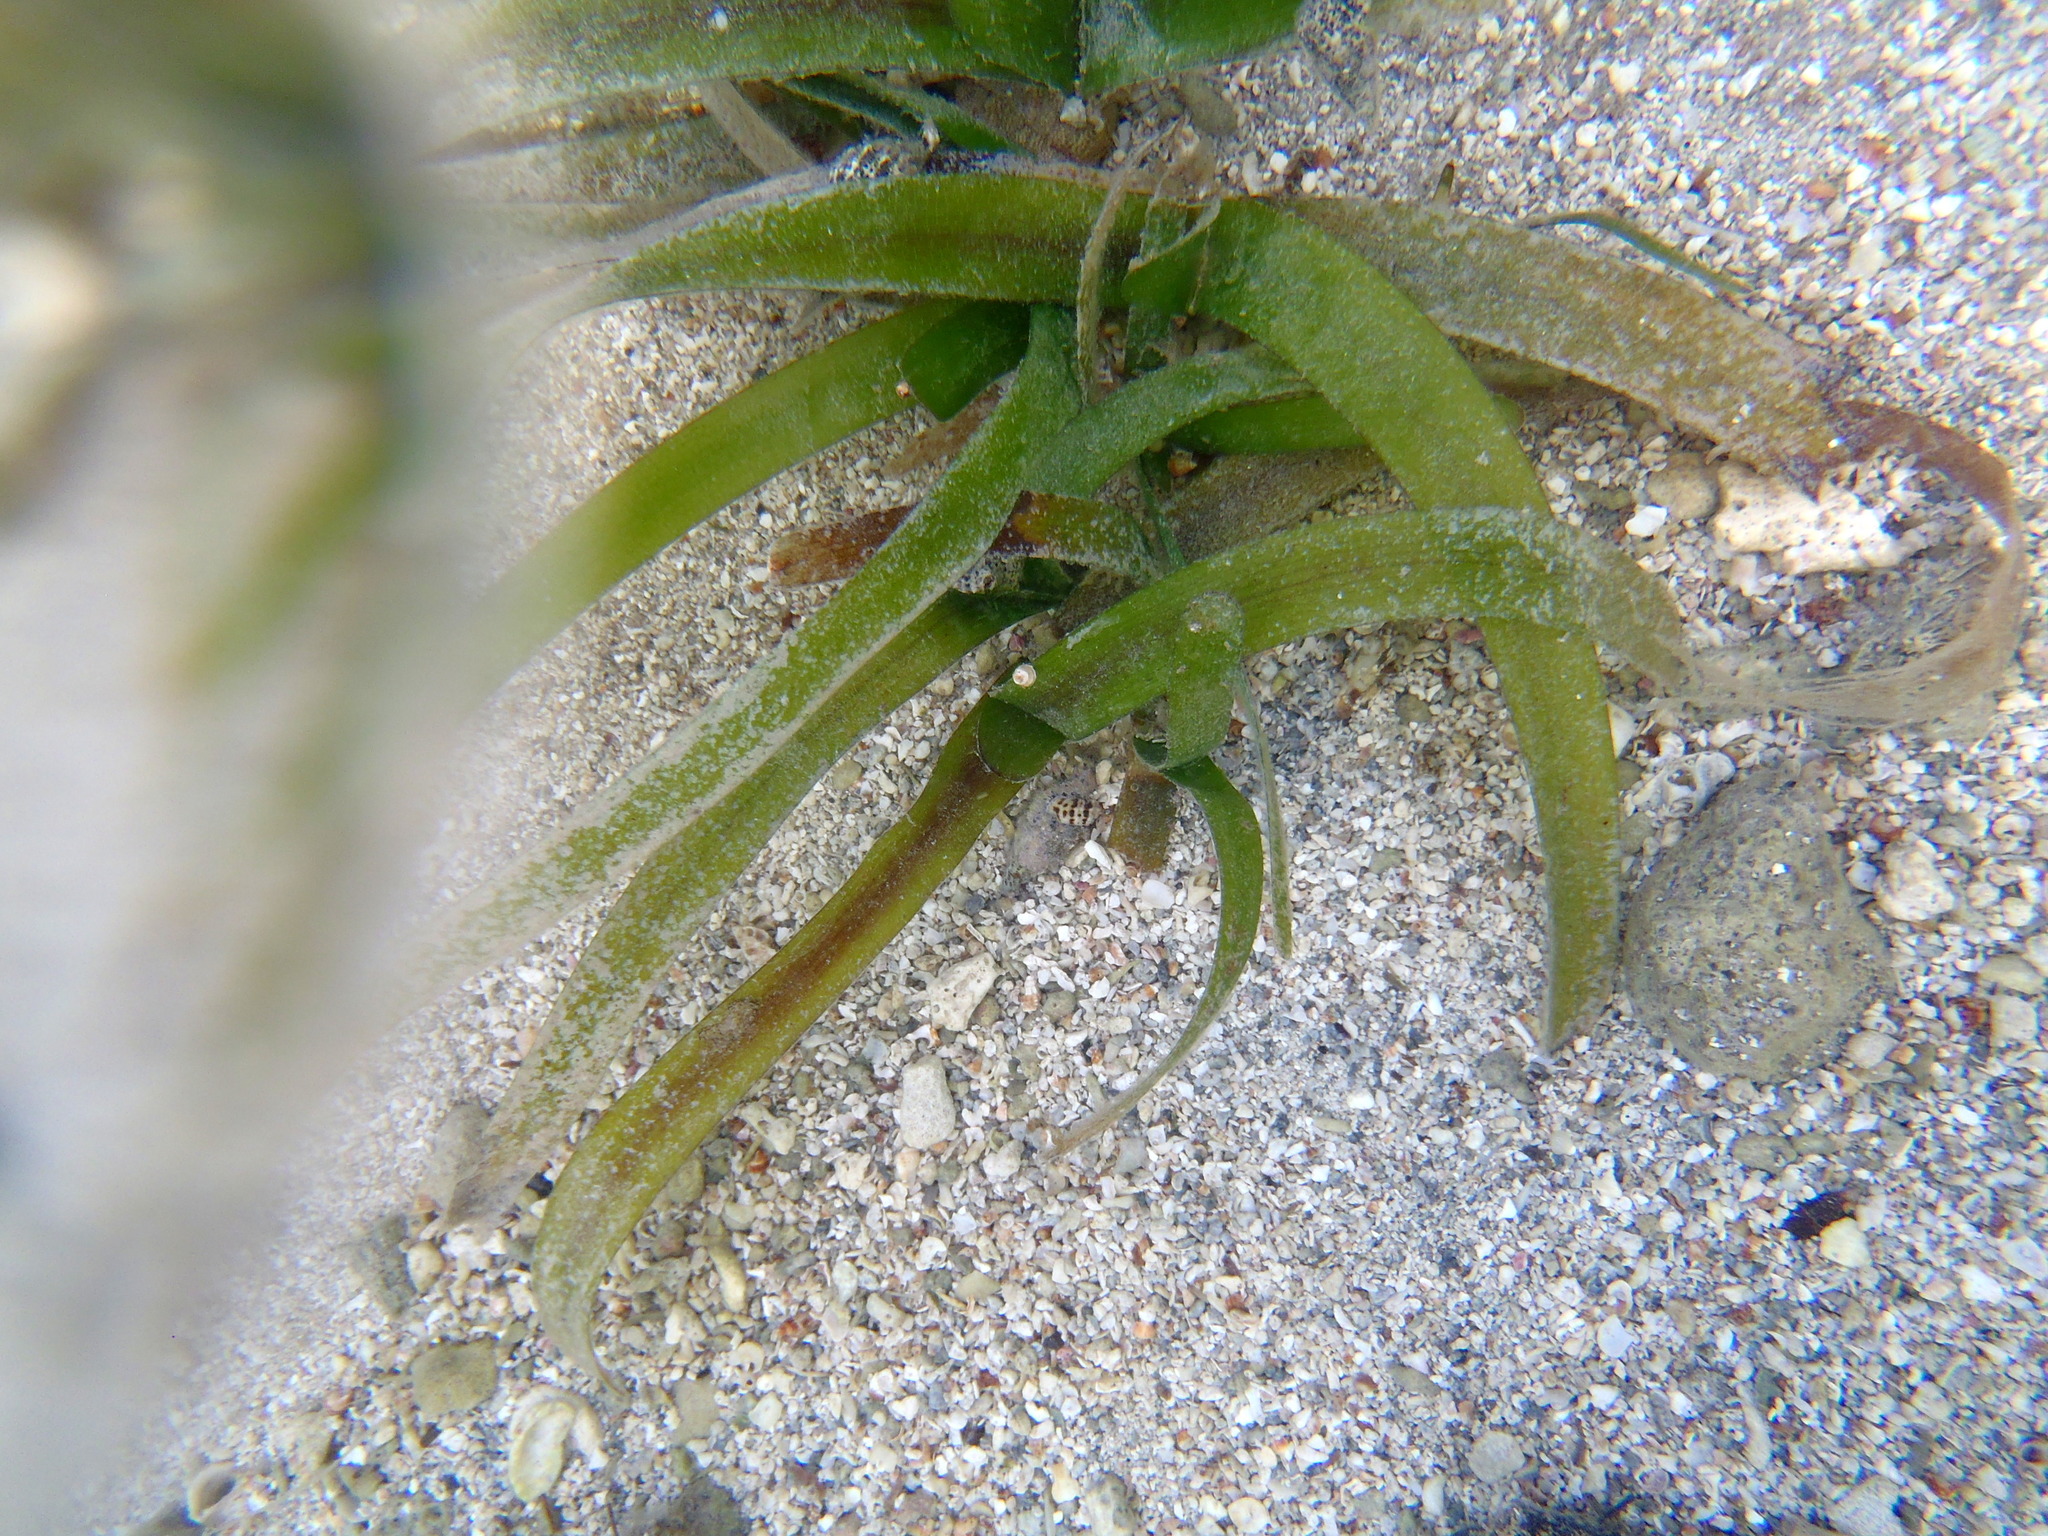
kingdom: Plantae
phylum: Tracheophyta
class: Liliopsida
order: Alismatales
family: Hydrocharitaceae
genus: Thalassia
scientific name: Thalassia testudinum
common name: Species code: tt
